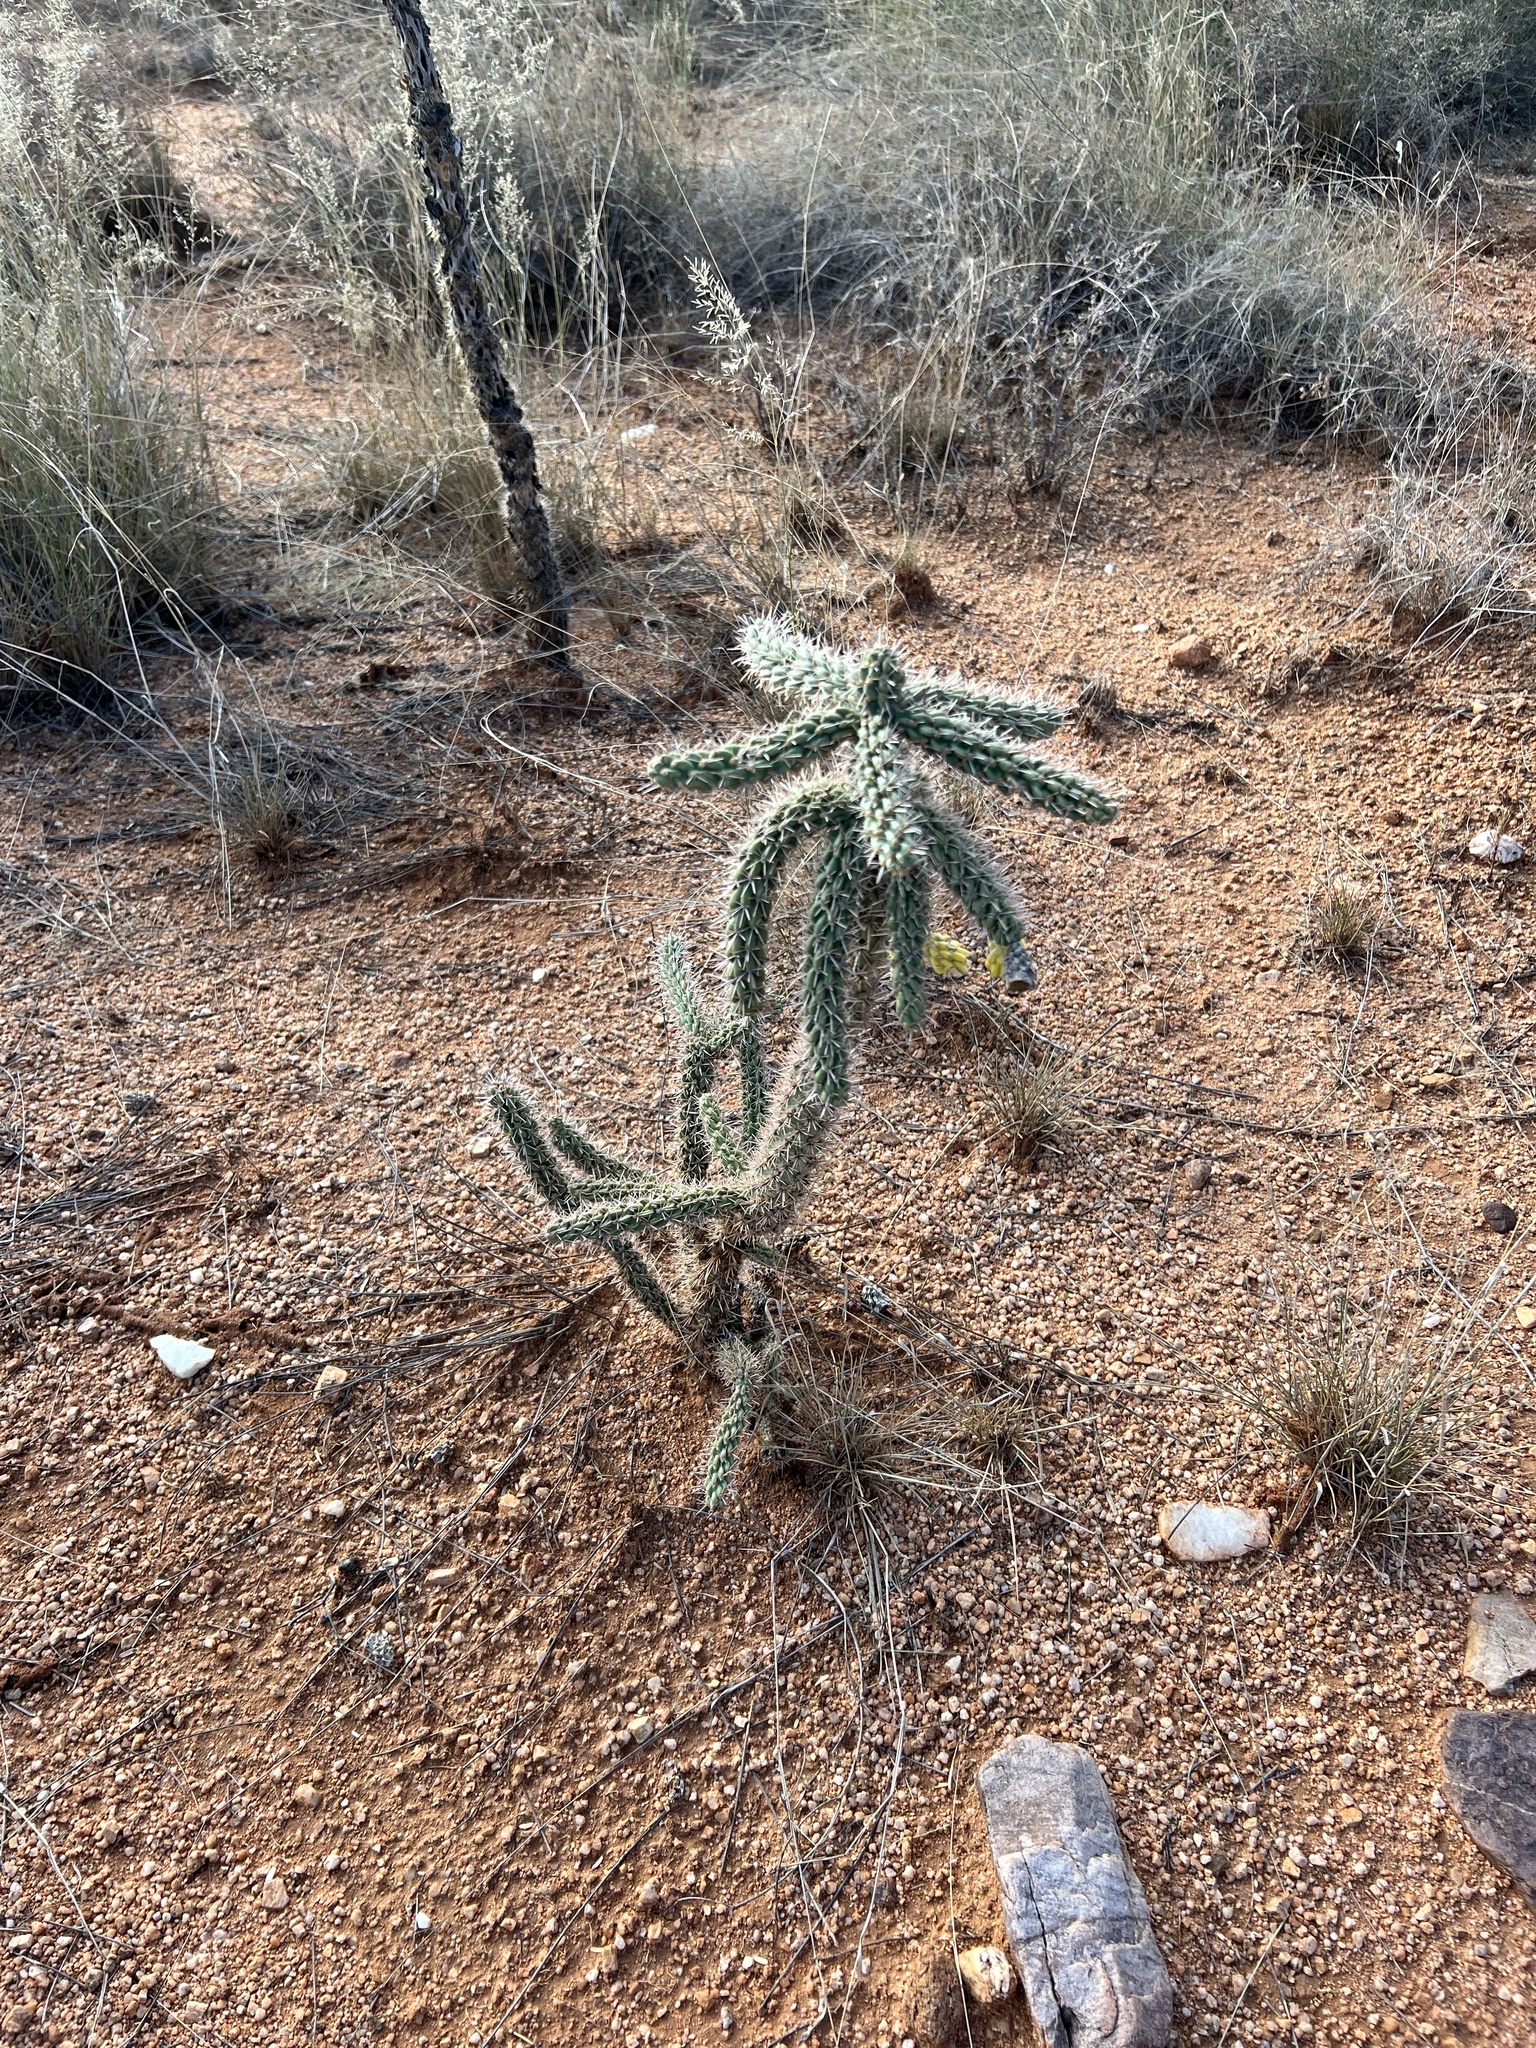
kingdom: Plantae
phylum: Tracheophyta
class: Magnoliopsida
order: Caryophyllales
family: Cactaceae
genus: Cylindropuntia
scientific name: Cylindropuntia imbricata
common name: Candelabrum cactus
